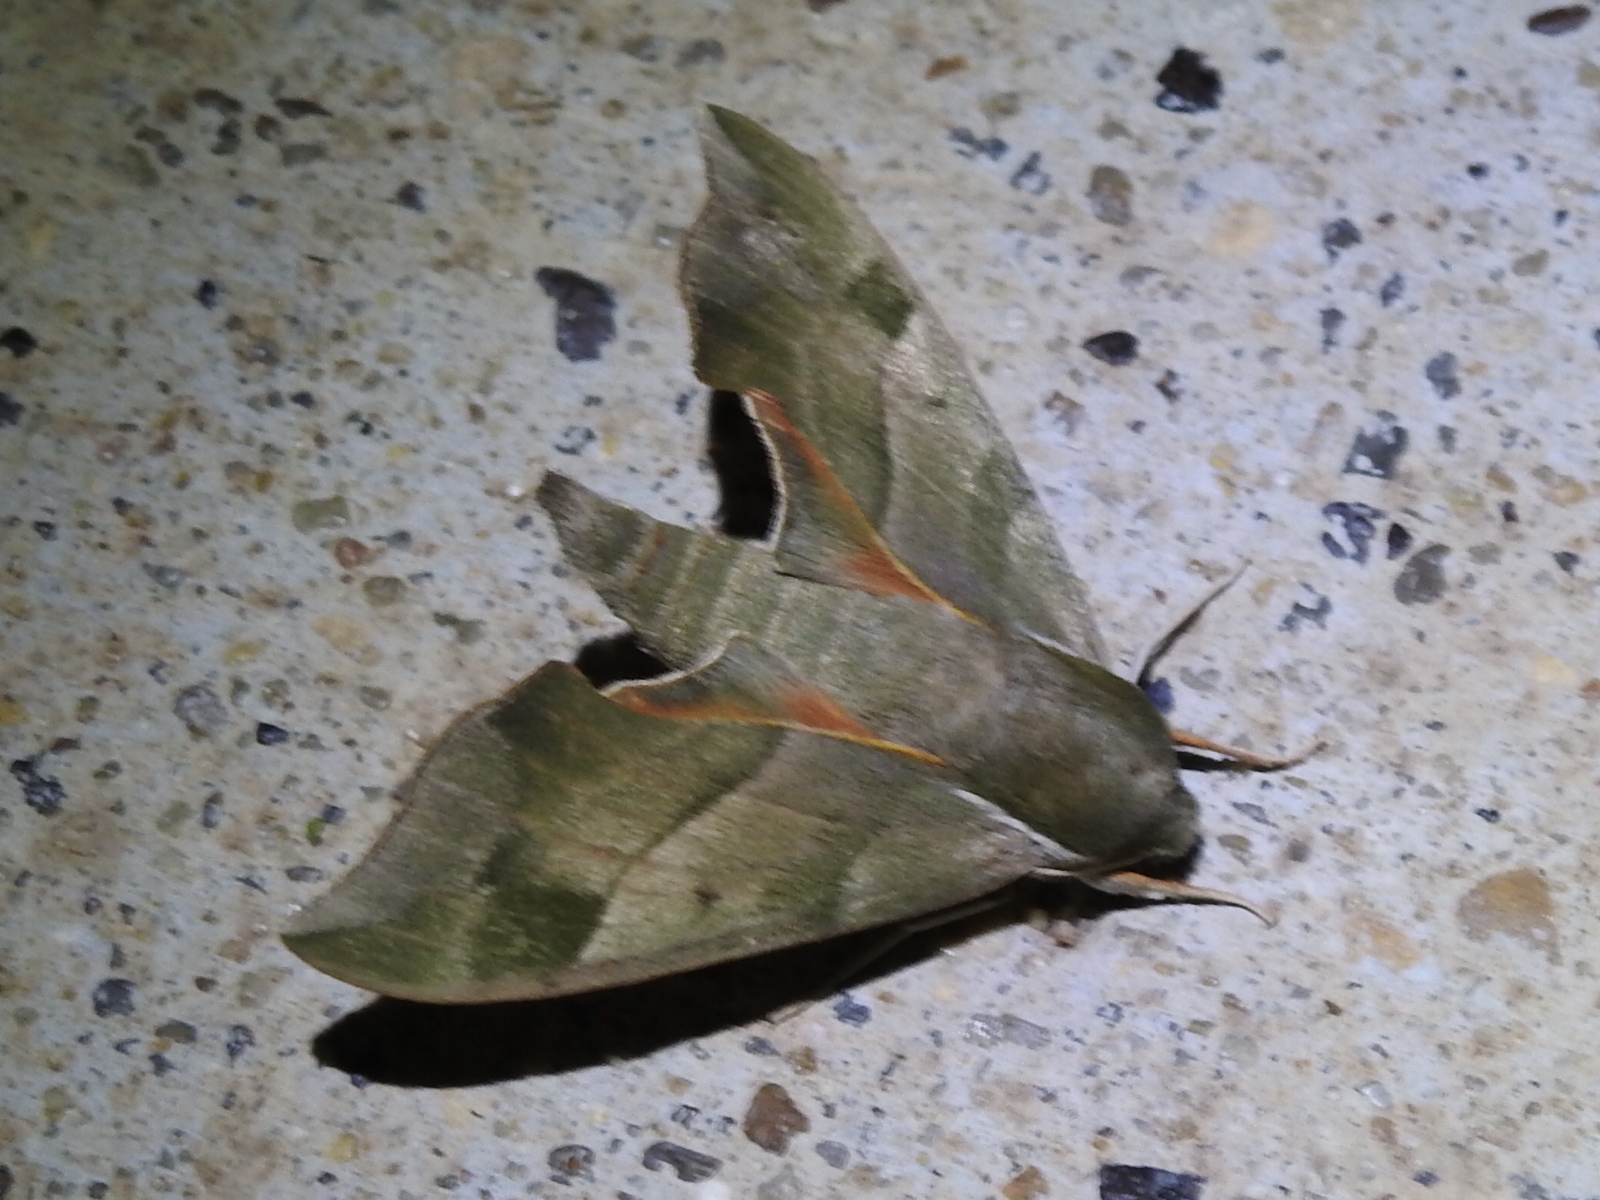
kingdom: Animalia
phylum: Arthropoda
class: Insecta
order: Lepidoptera
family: Sphingidae
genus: Darapsa
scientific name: Darapsa myron
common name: Hog sphinx
